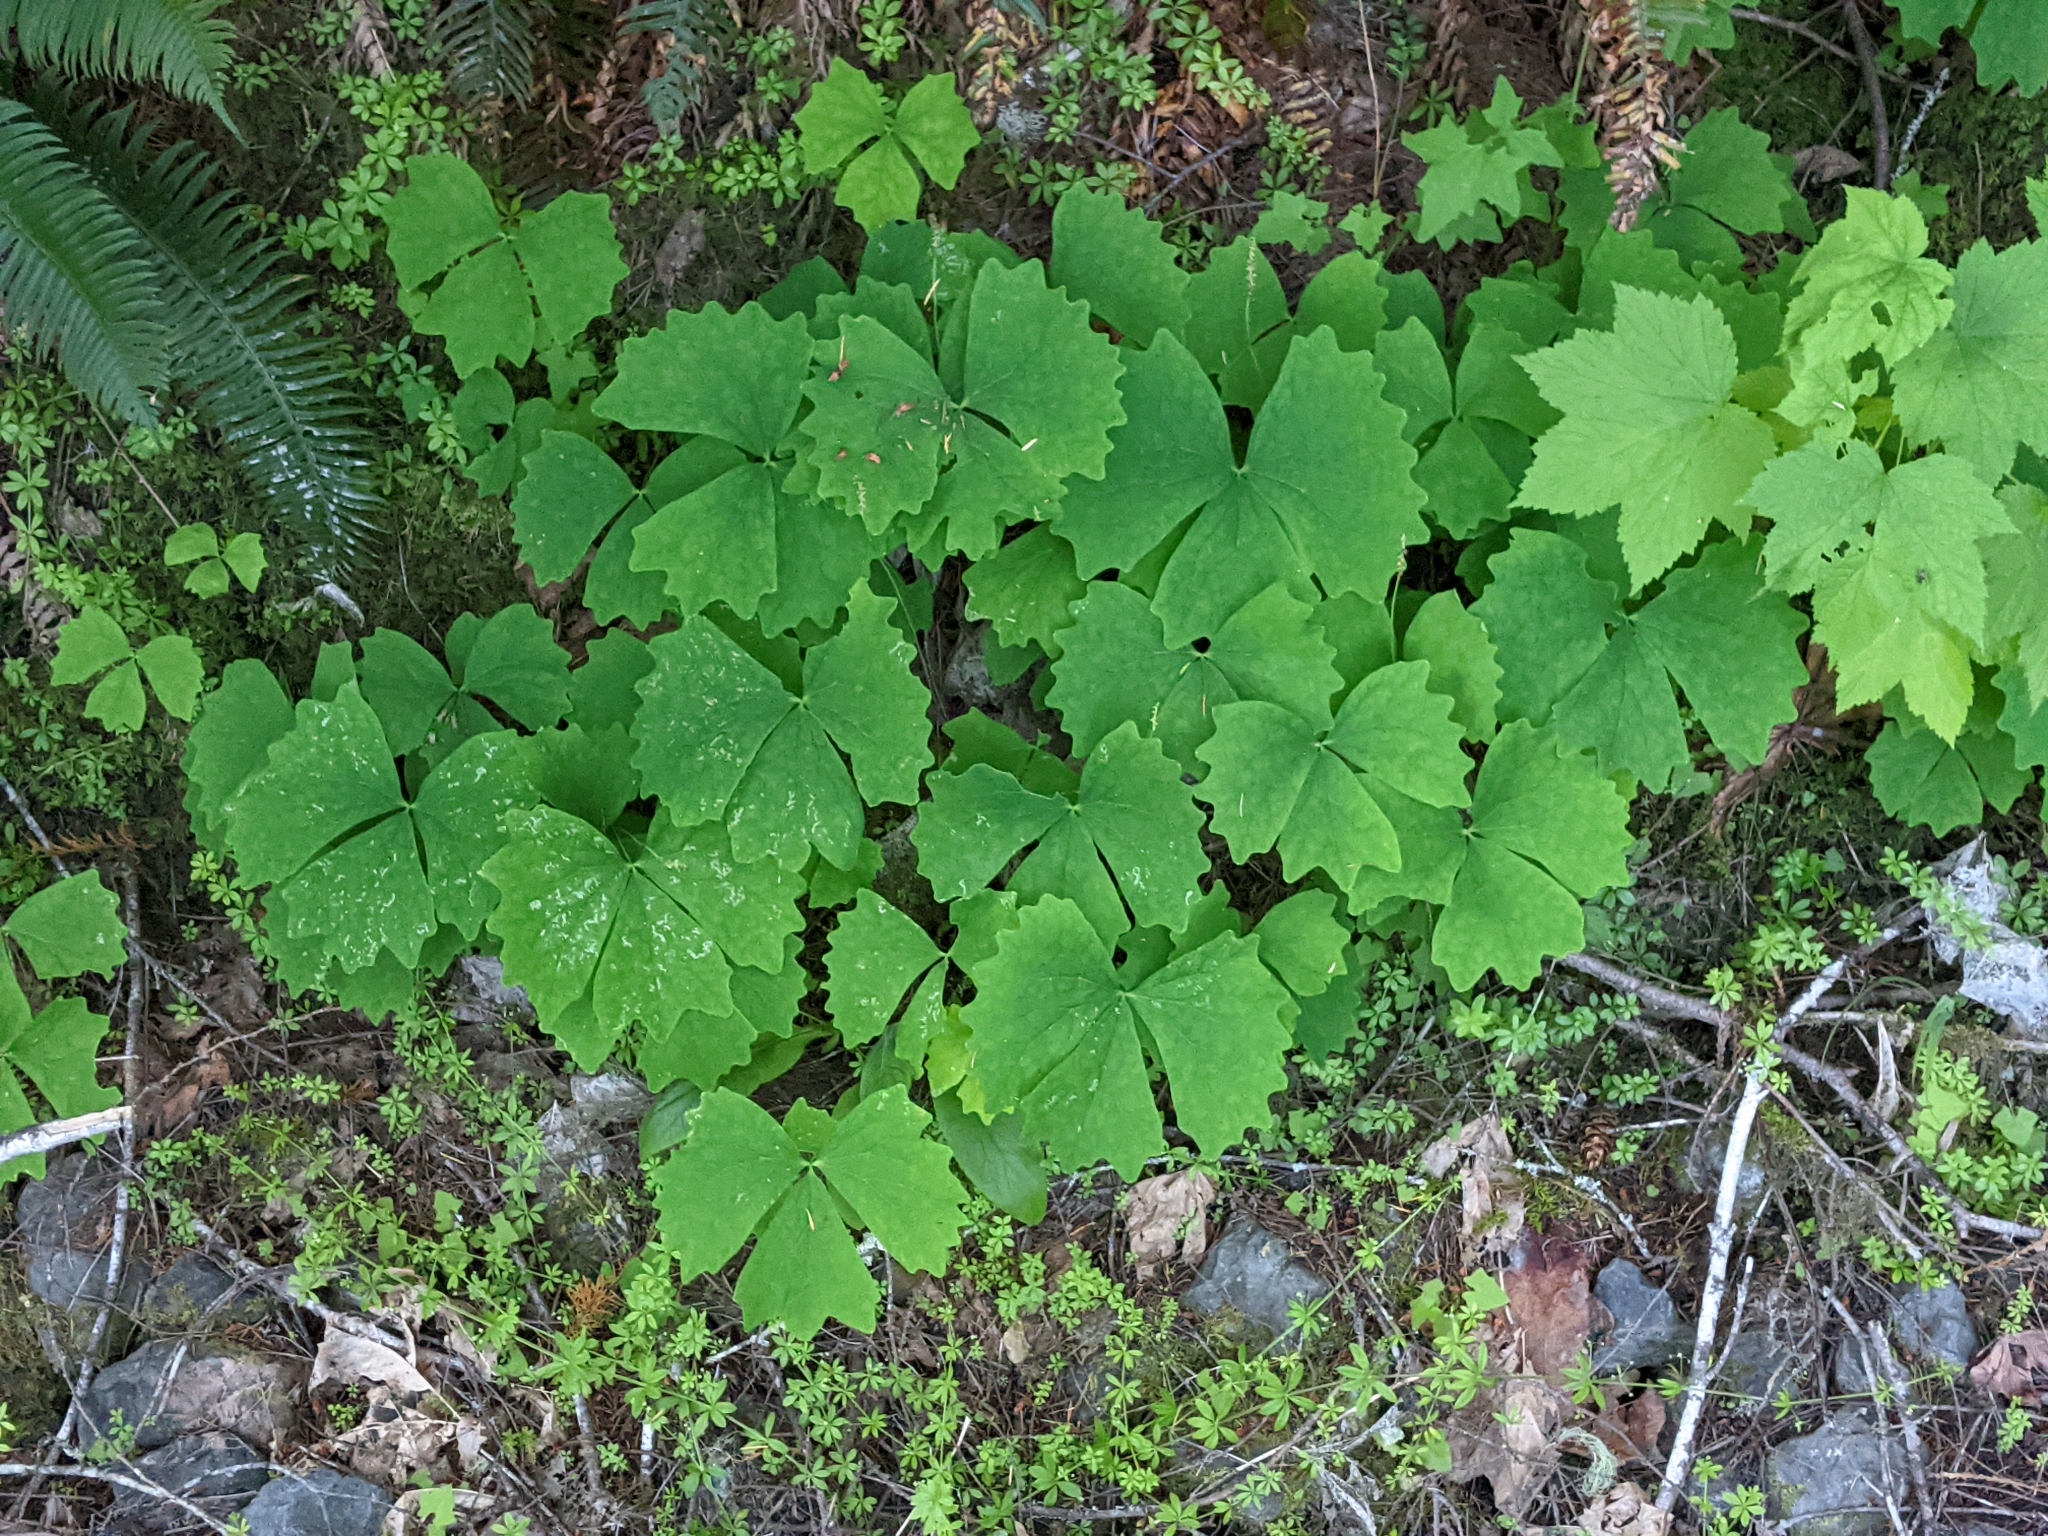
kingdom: Plantae
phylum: Tracheophyta
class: Magnoliopsida
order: Ranunculales
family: Berberidaceae
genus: Achlys
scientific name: Achlys triphylla
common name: Vanilla-leaf
